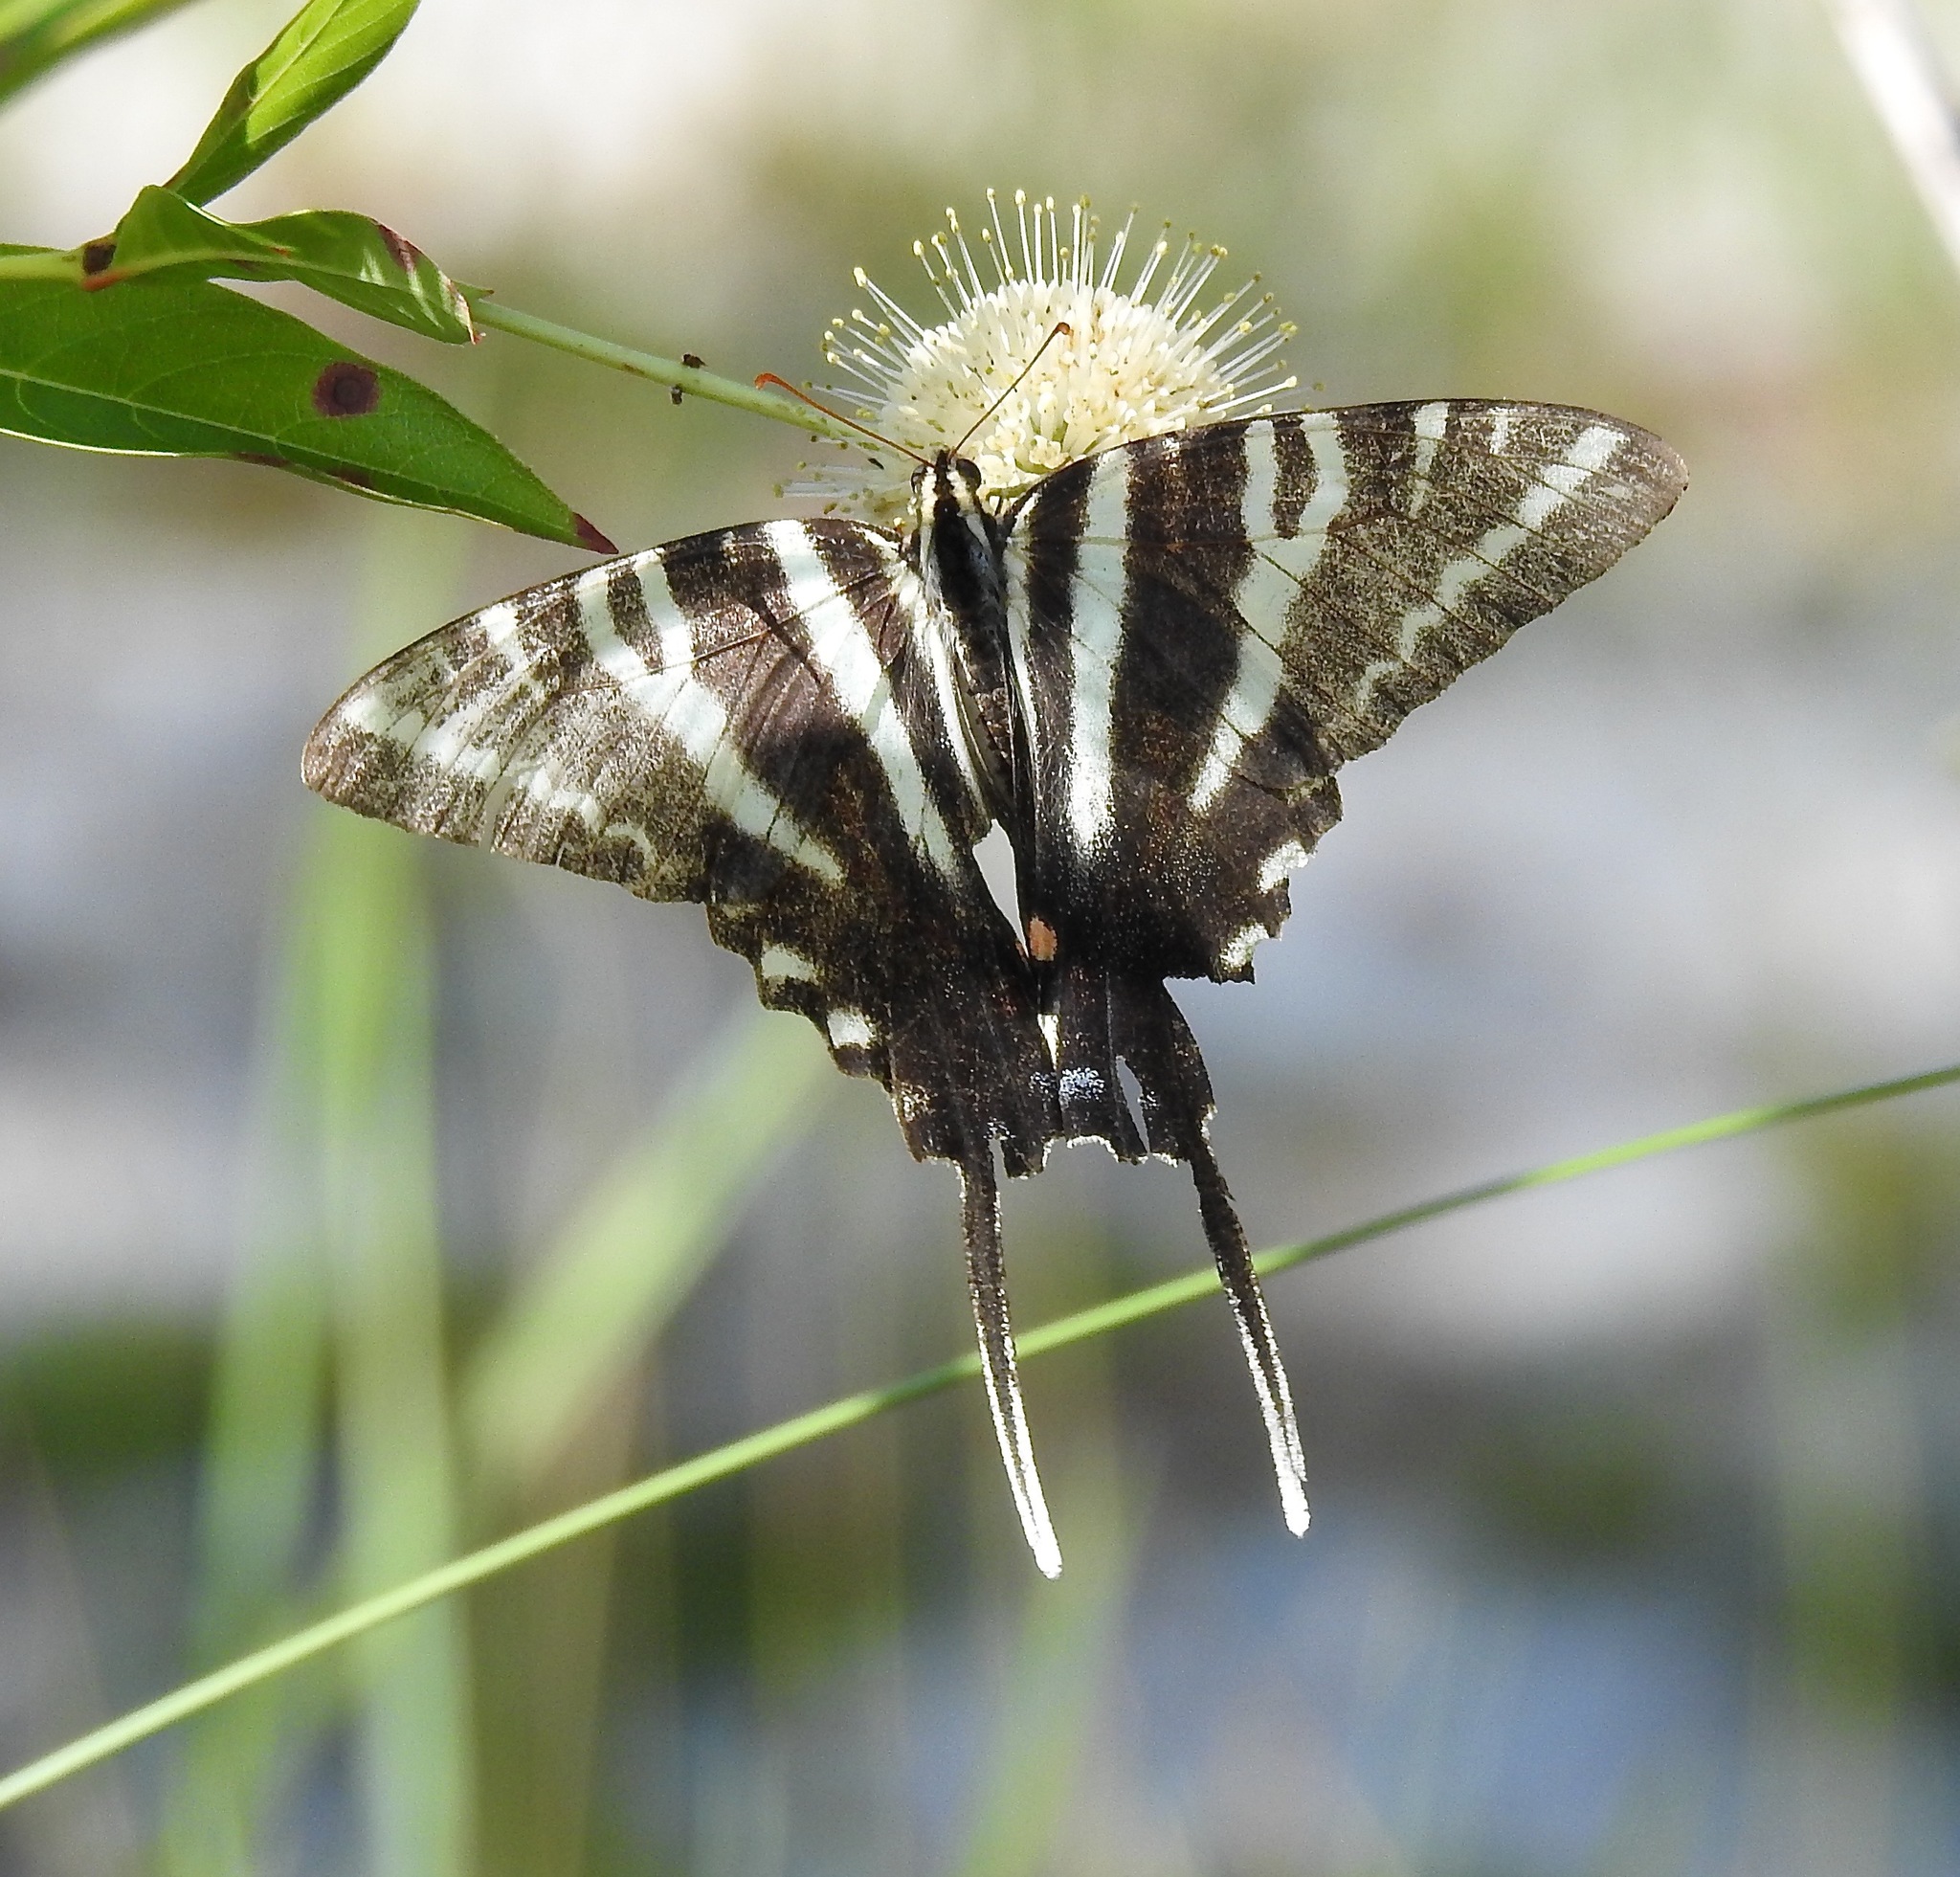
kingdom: Animalia
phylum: Arthropoda
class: Insecta
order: Lepidoptera
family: Papilionidae
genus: Protographium
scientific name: Protographium marcellus
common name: Zebra swallowtail
